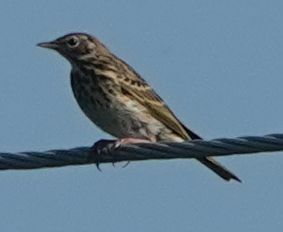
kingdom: Animalia
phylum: Chordata
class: Aves
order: Passeriformes
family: Motacillidae
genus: Anthus
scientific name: Anthus trivialis
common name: Tree pipit
